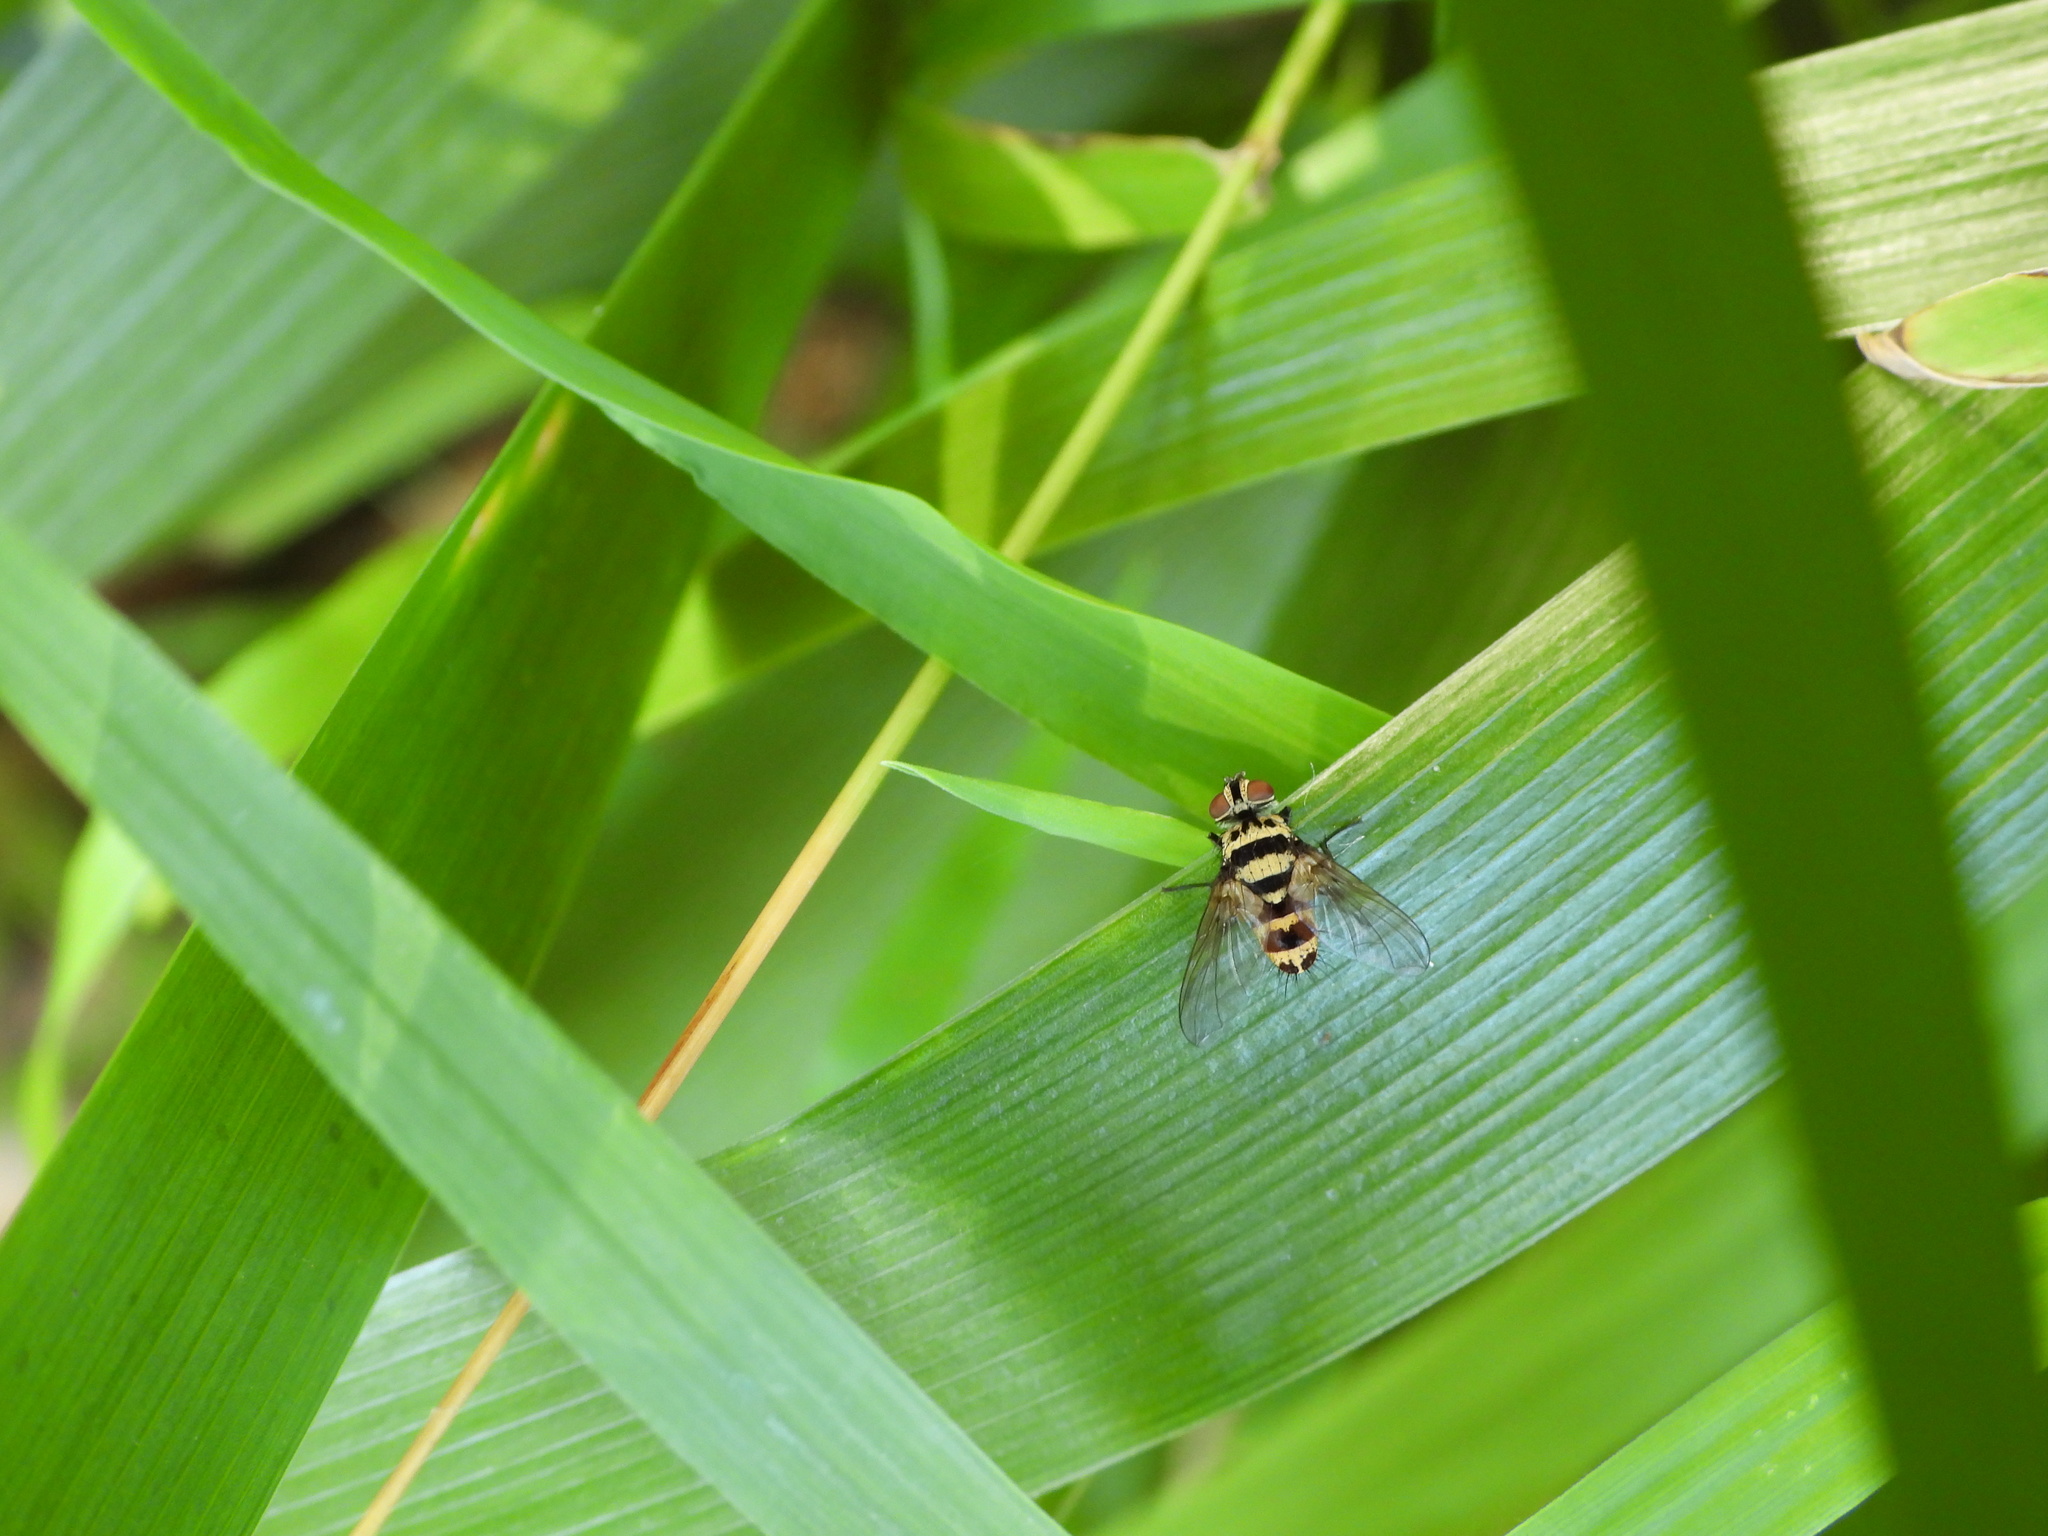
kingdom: Animalia
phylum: Arthropoda
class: Insecta
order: Diptera
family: Tachinidae
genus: Trigonospila
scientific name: Trigonospila brevifacies
